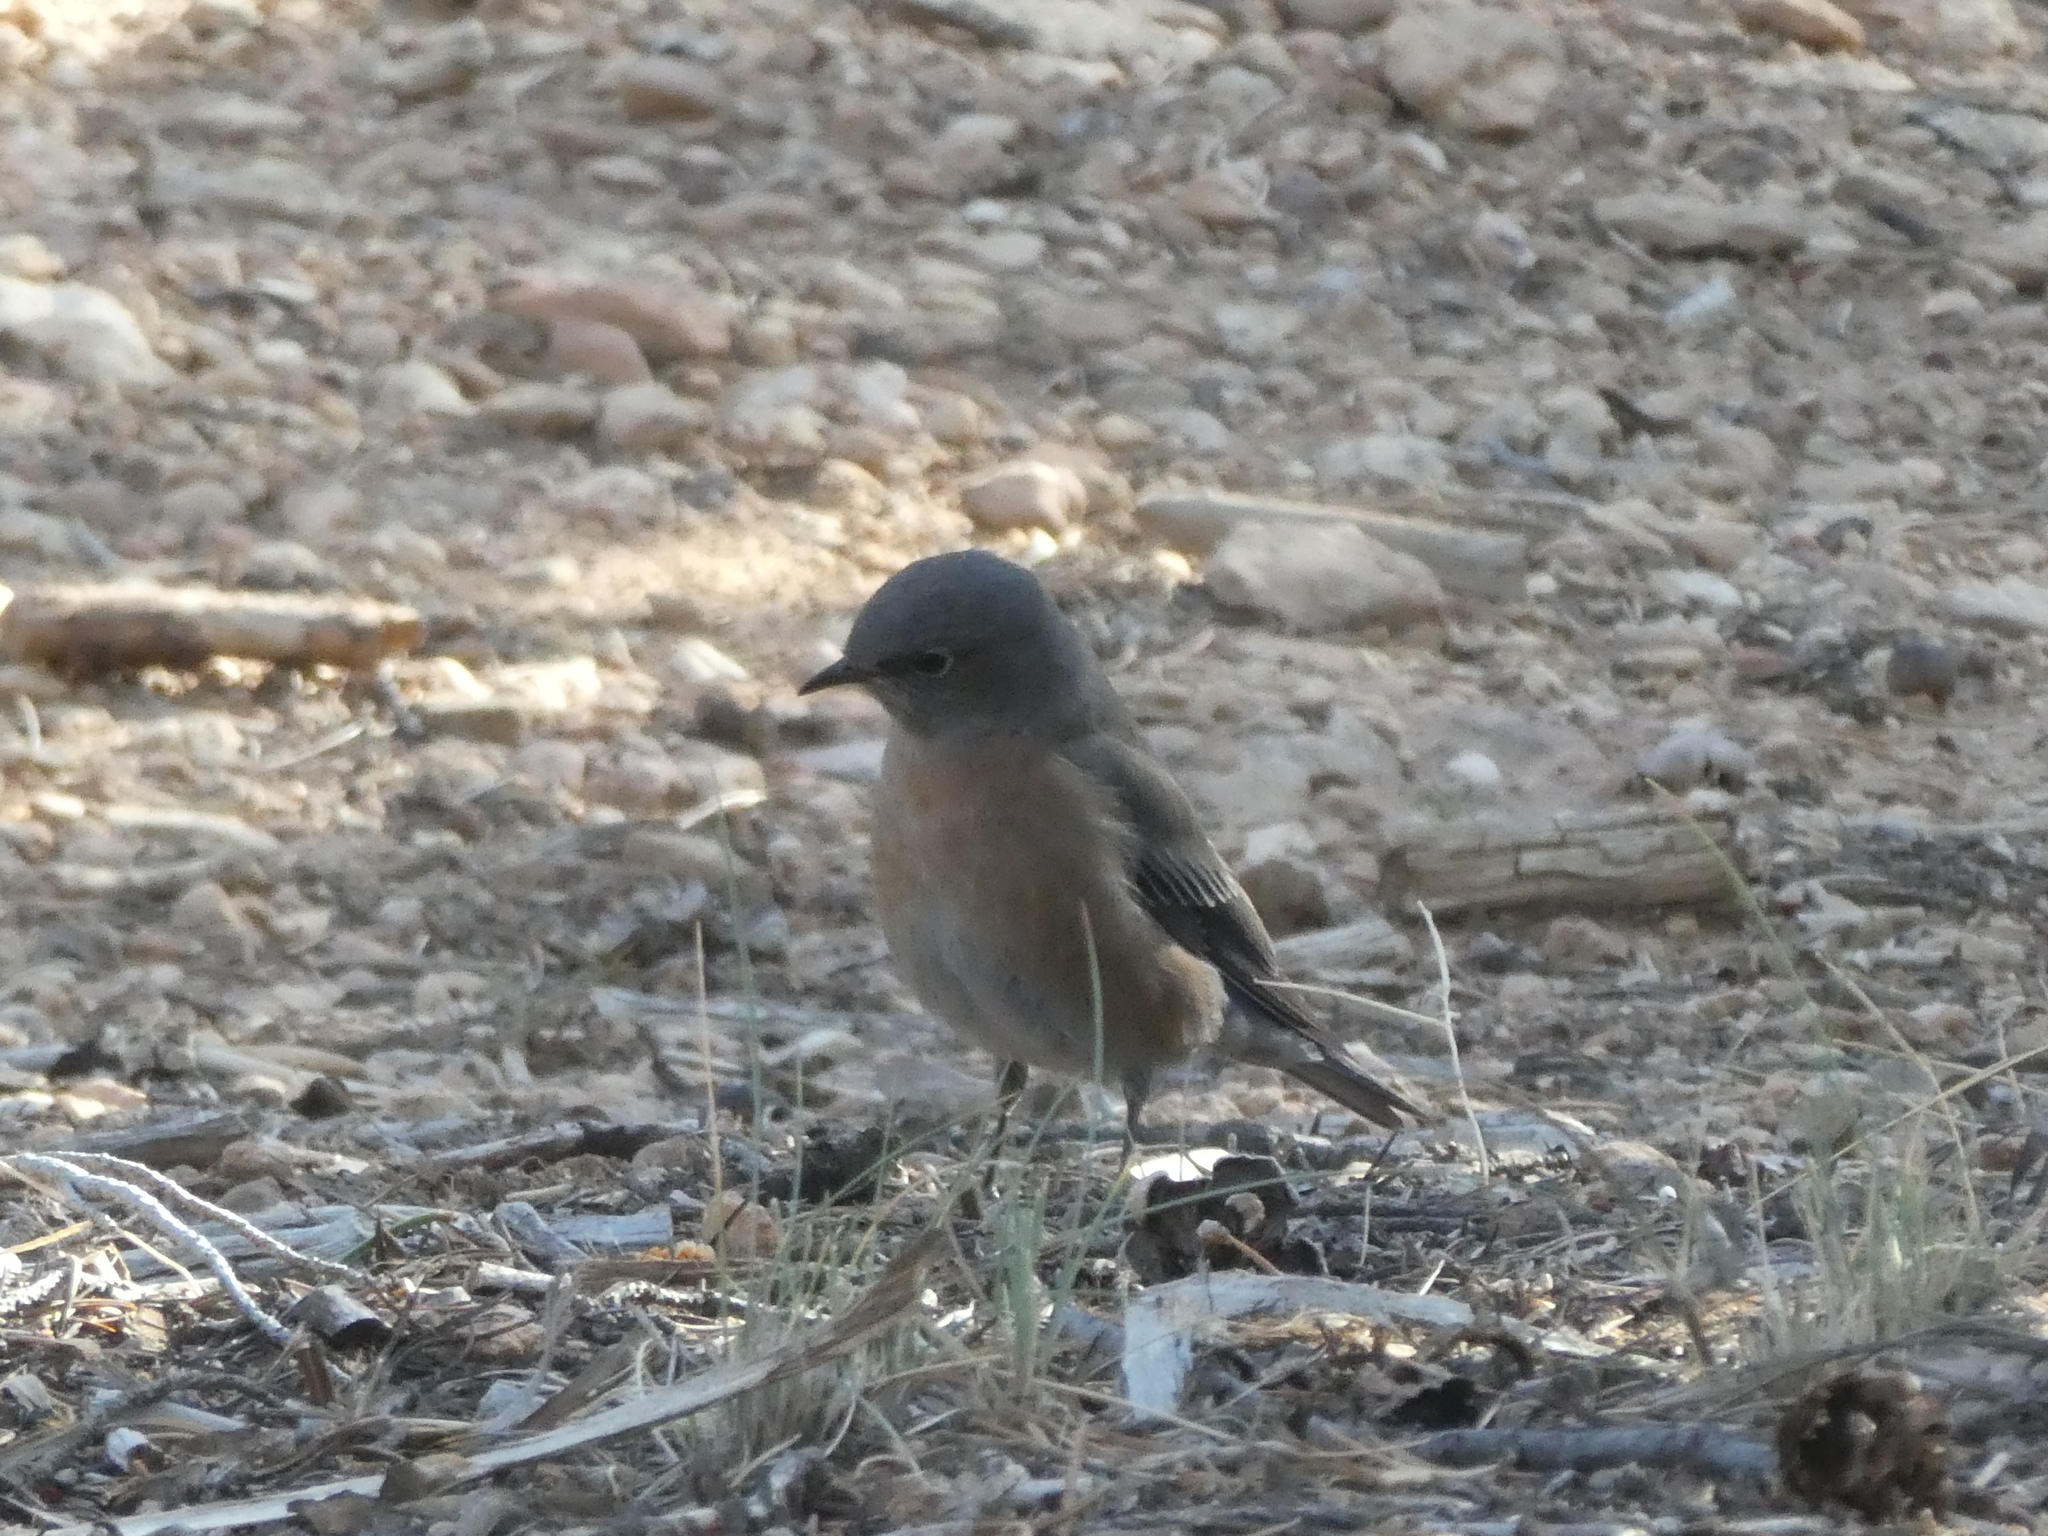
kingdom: Animalia
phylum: Chordata
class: Aves
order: Passeriformes
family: Turdidae
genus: Sialia
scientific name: Sialia mexicana
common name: Western bluebird
